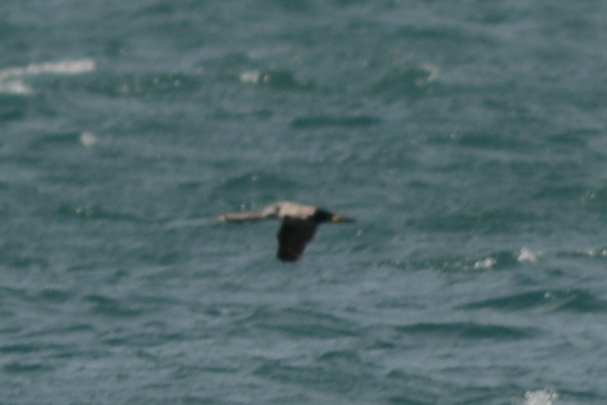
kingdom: Animalia
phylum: Chordata
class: Aves
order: Suliformes
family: Phalacrocoracidae
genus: Phalacrocorax
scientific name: Phalacrocorax punctatus
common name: Spotted shag
